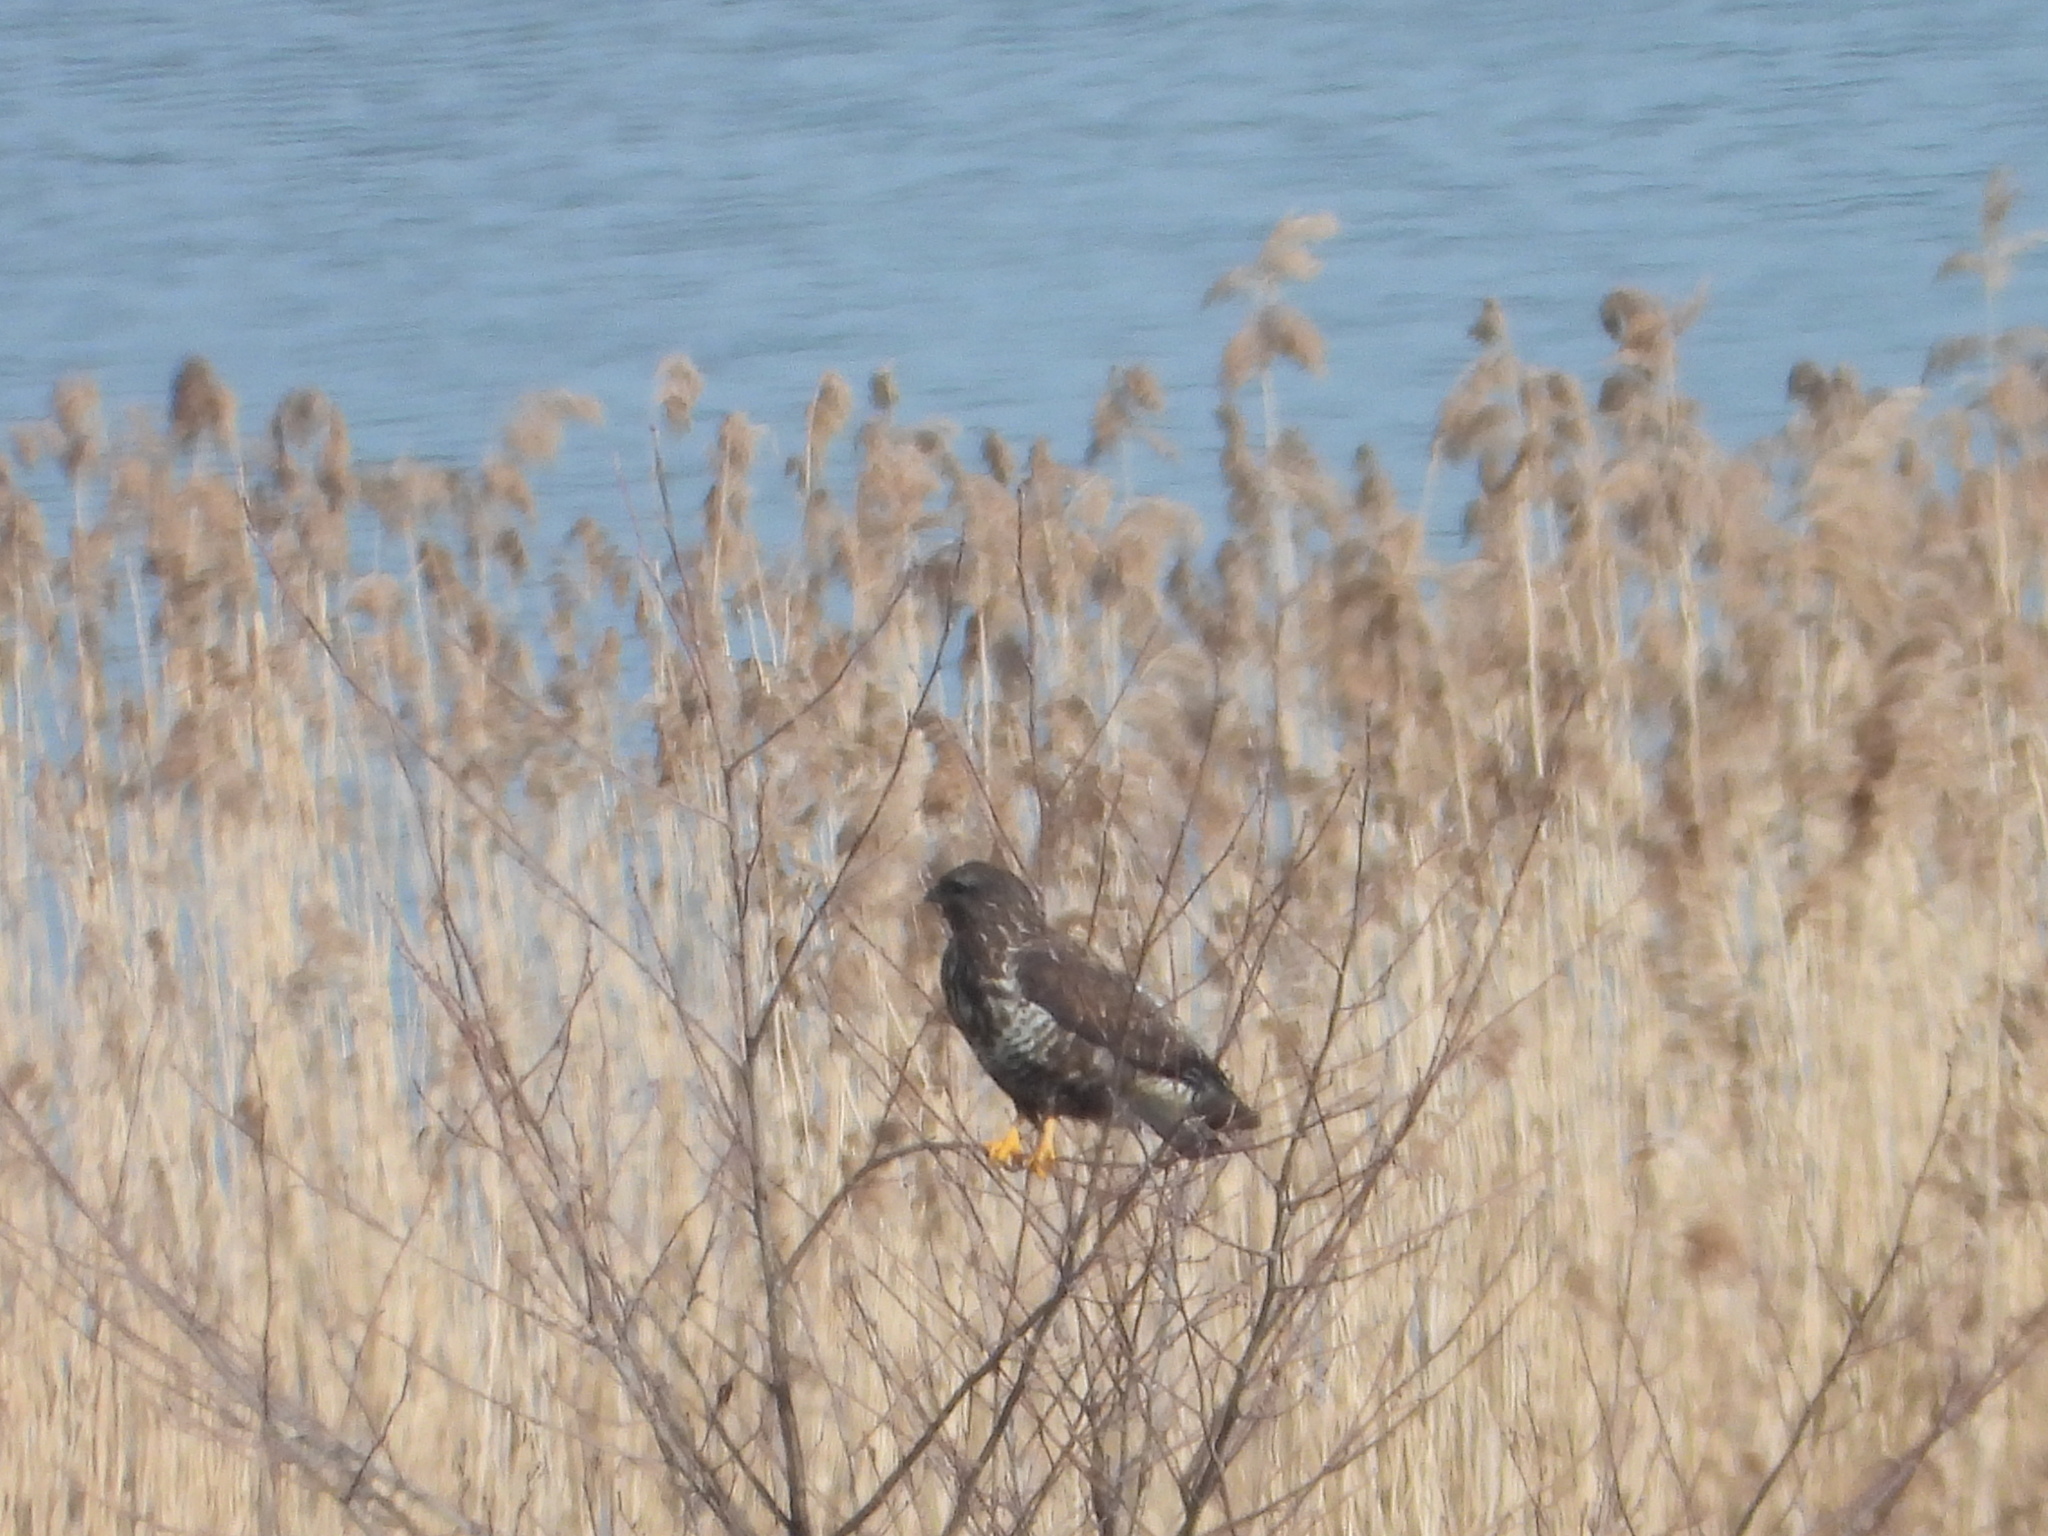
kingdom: Animalia
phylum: Chordata
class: Aves
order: Accipitriformes
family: Accipitridae
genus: Buteo
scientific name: Buteo buteo
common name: Common buzzard
